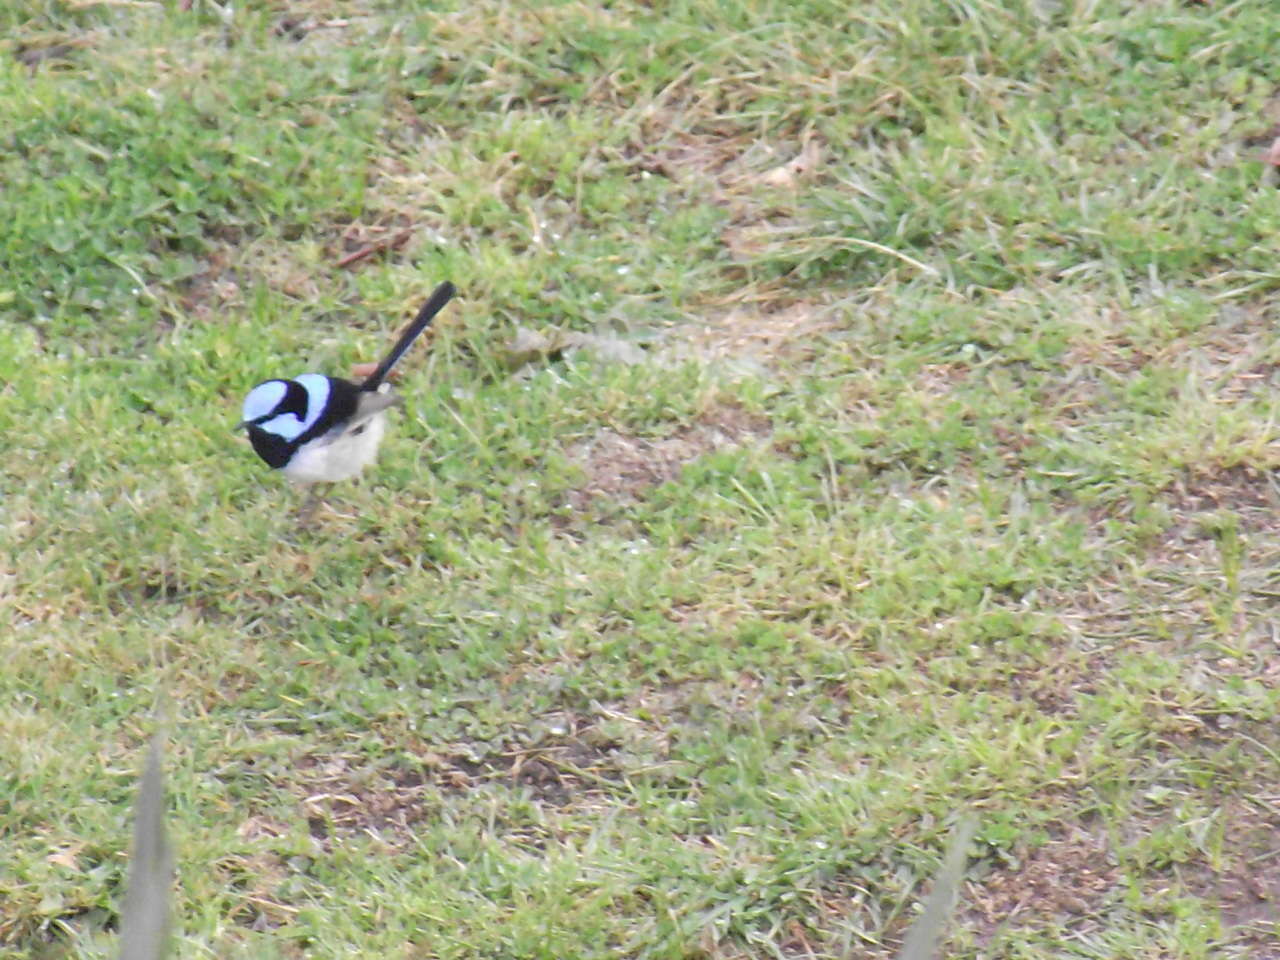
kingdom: Animalia
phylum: Chordata
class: Aves
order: Passeriformes
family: Maluridae
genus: Malurus
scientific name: Malurus cyaneus
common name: Superb fairywren
